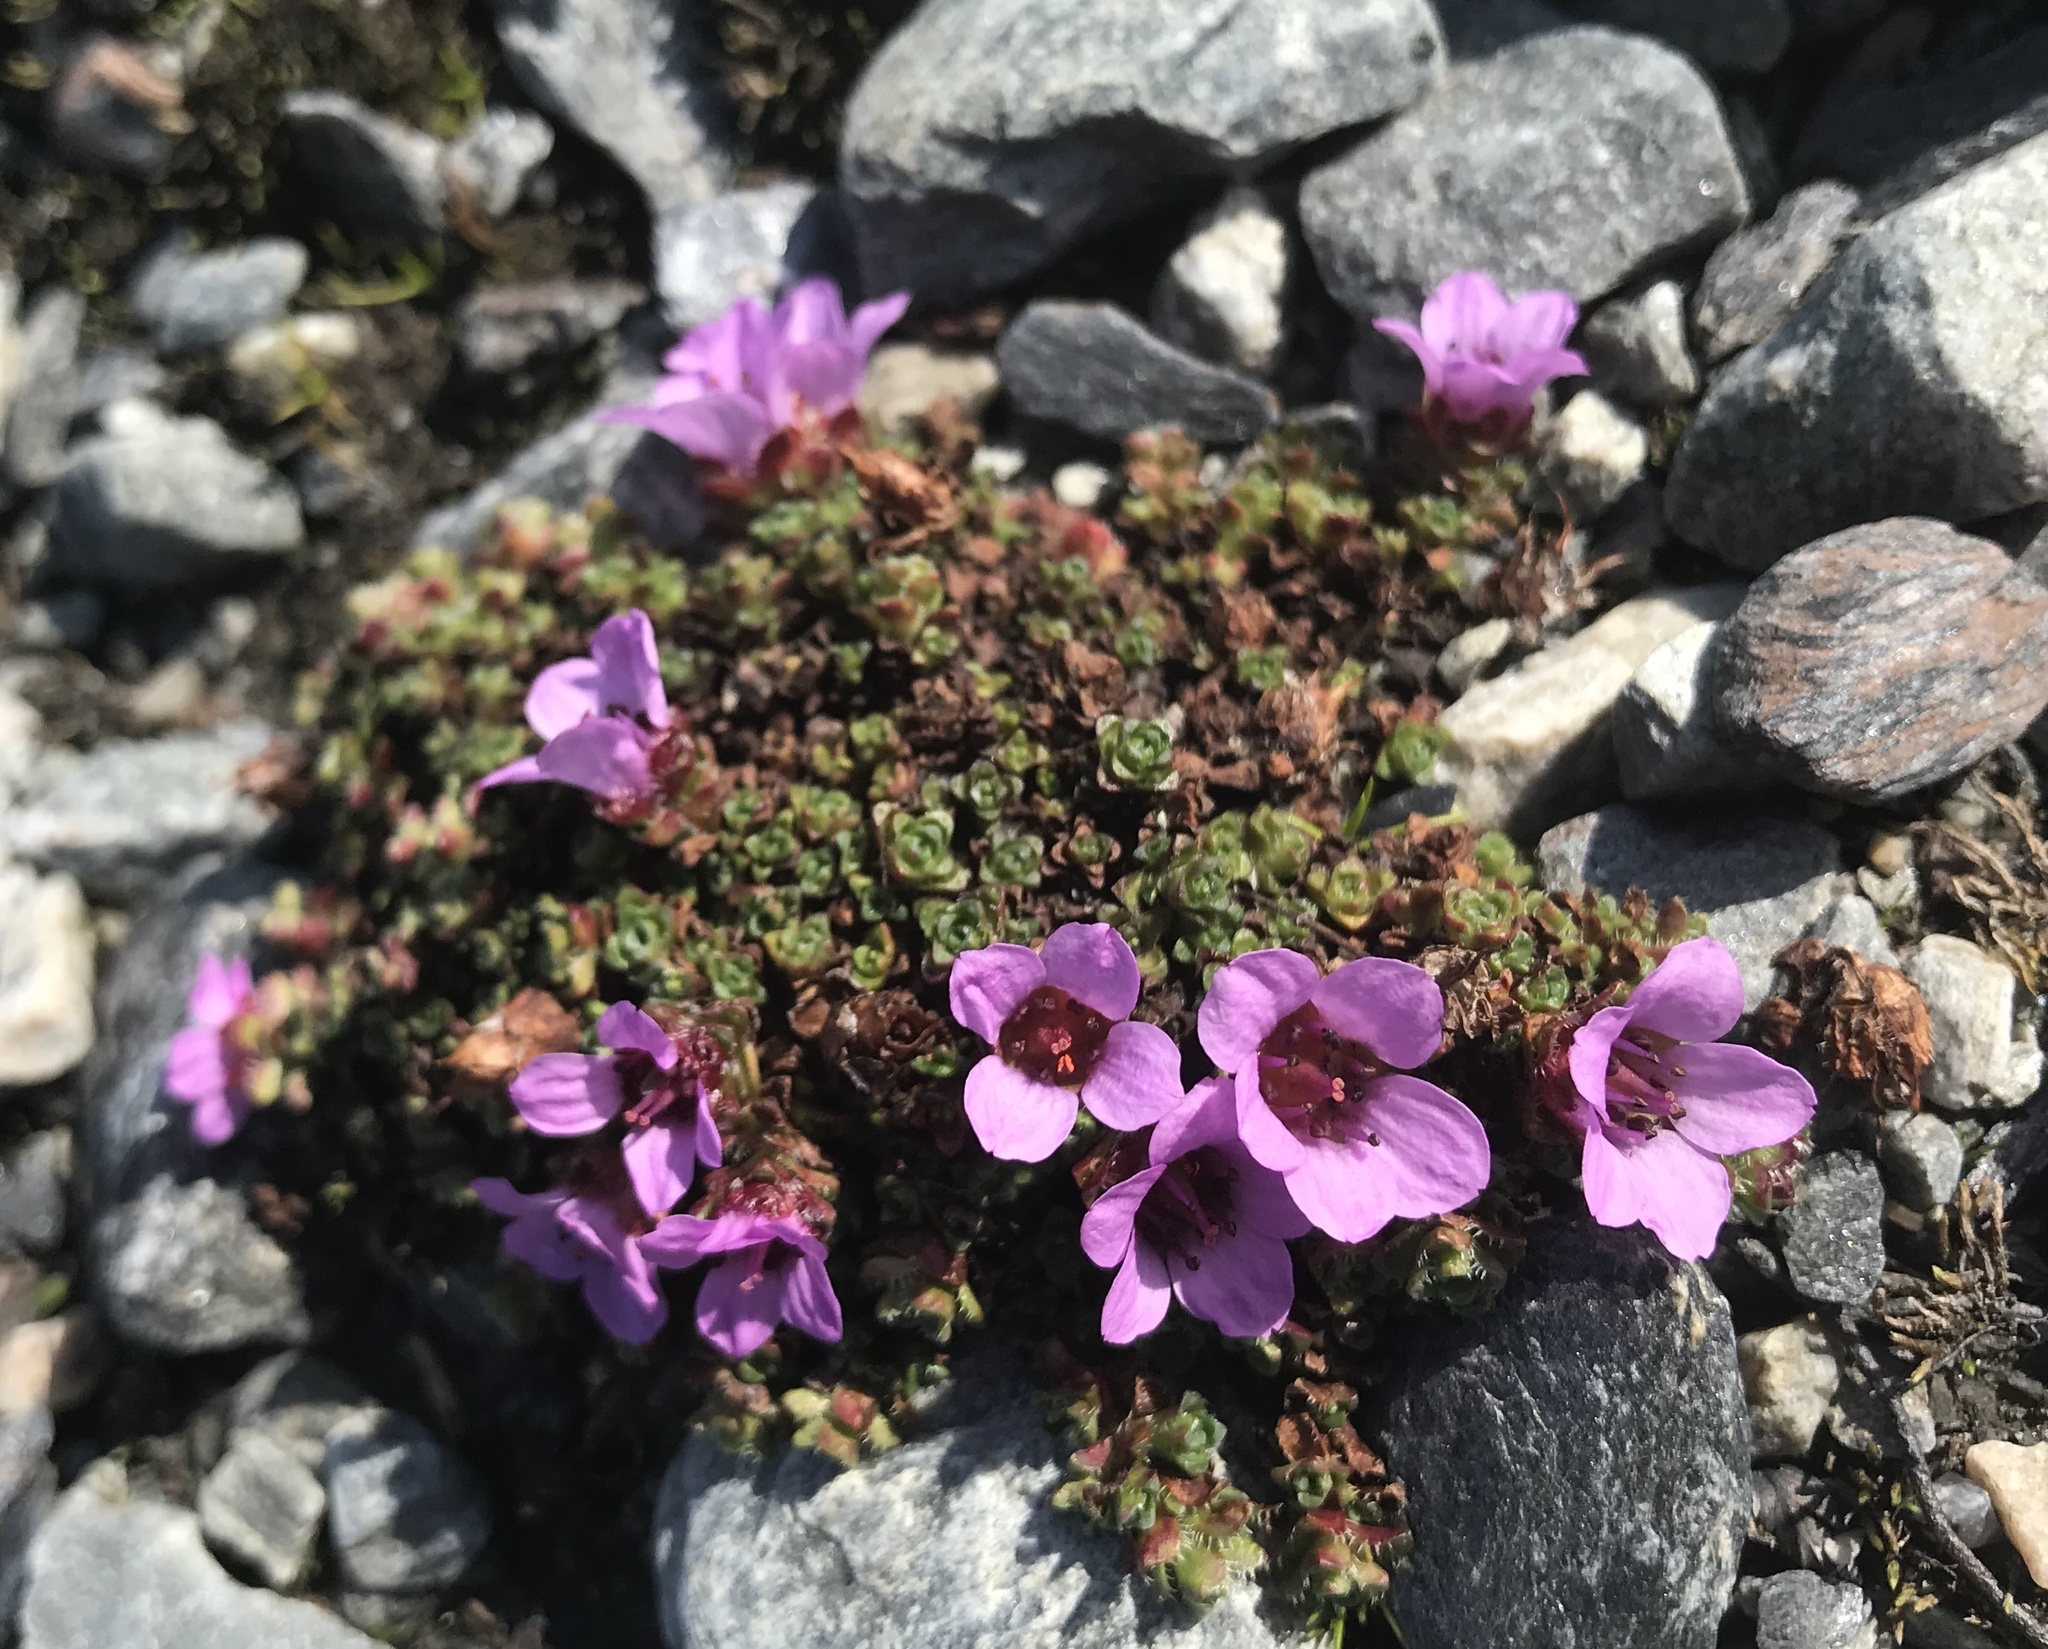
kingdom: Plantae
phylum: Tracheophyta
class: Magnoliopsida
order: Saxifragales
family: Saxifragaceae
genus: Saxifraga
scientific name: Saxifraga oppositifolia
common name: Purple saxifrage
